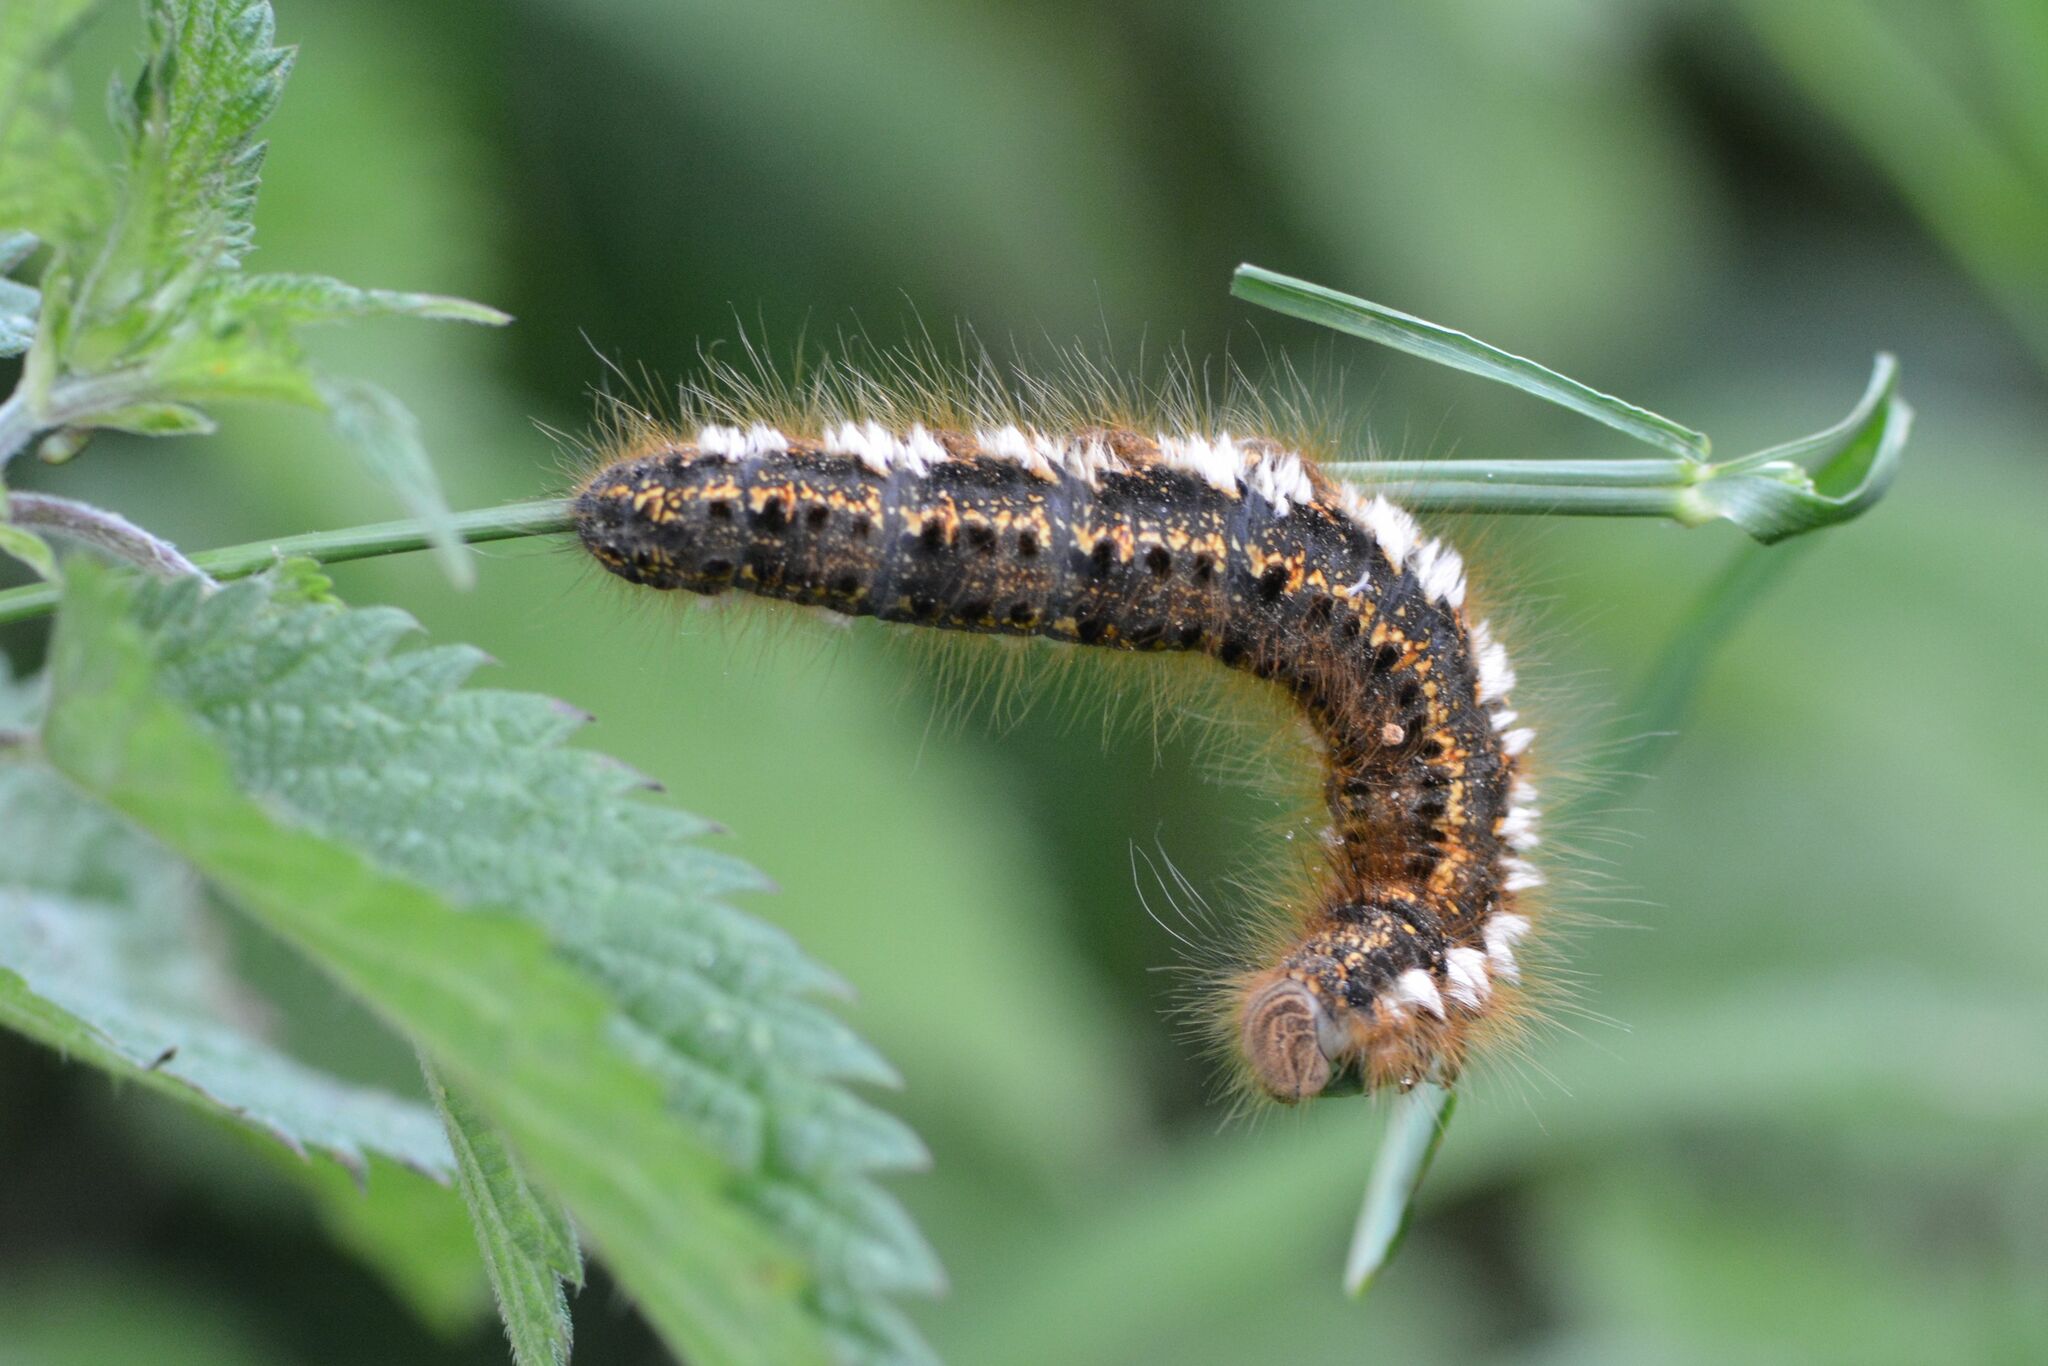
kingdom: Animalia
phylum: Arthropoda
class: Insecta
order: Lepidoptera
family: Lasiocampidae
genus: Euthrix
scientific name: Euthrix potatoria
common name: Drinker
